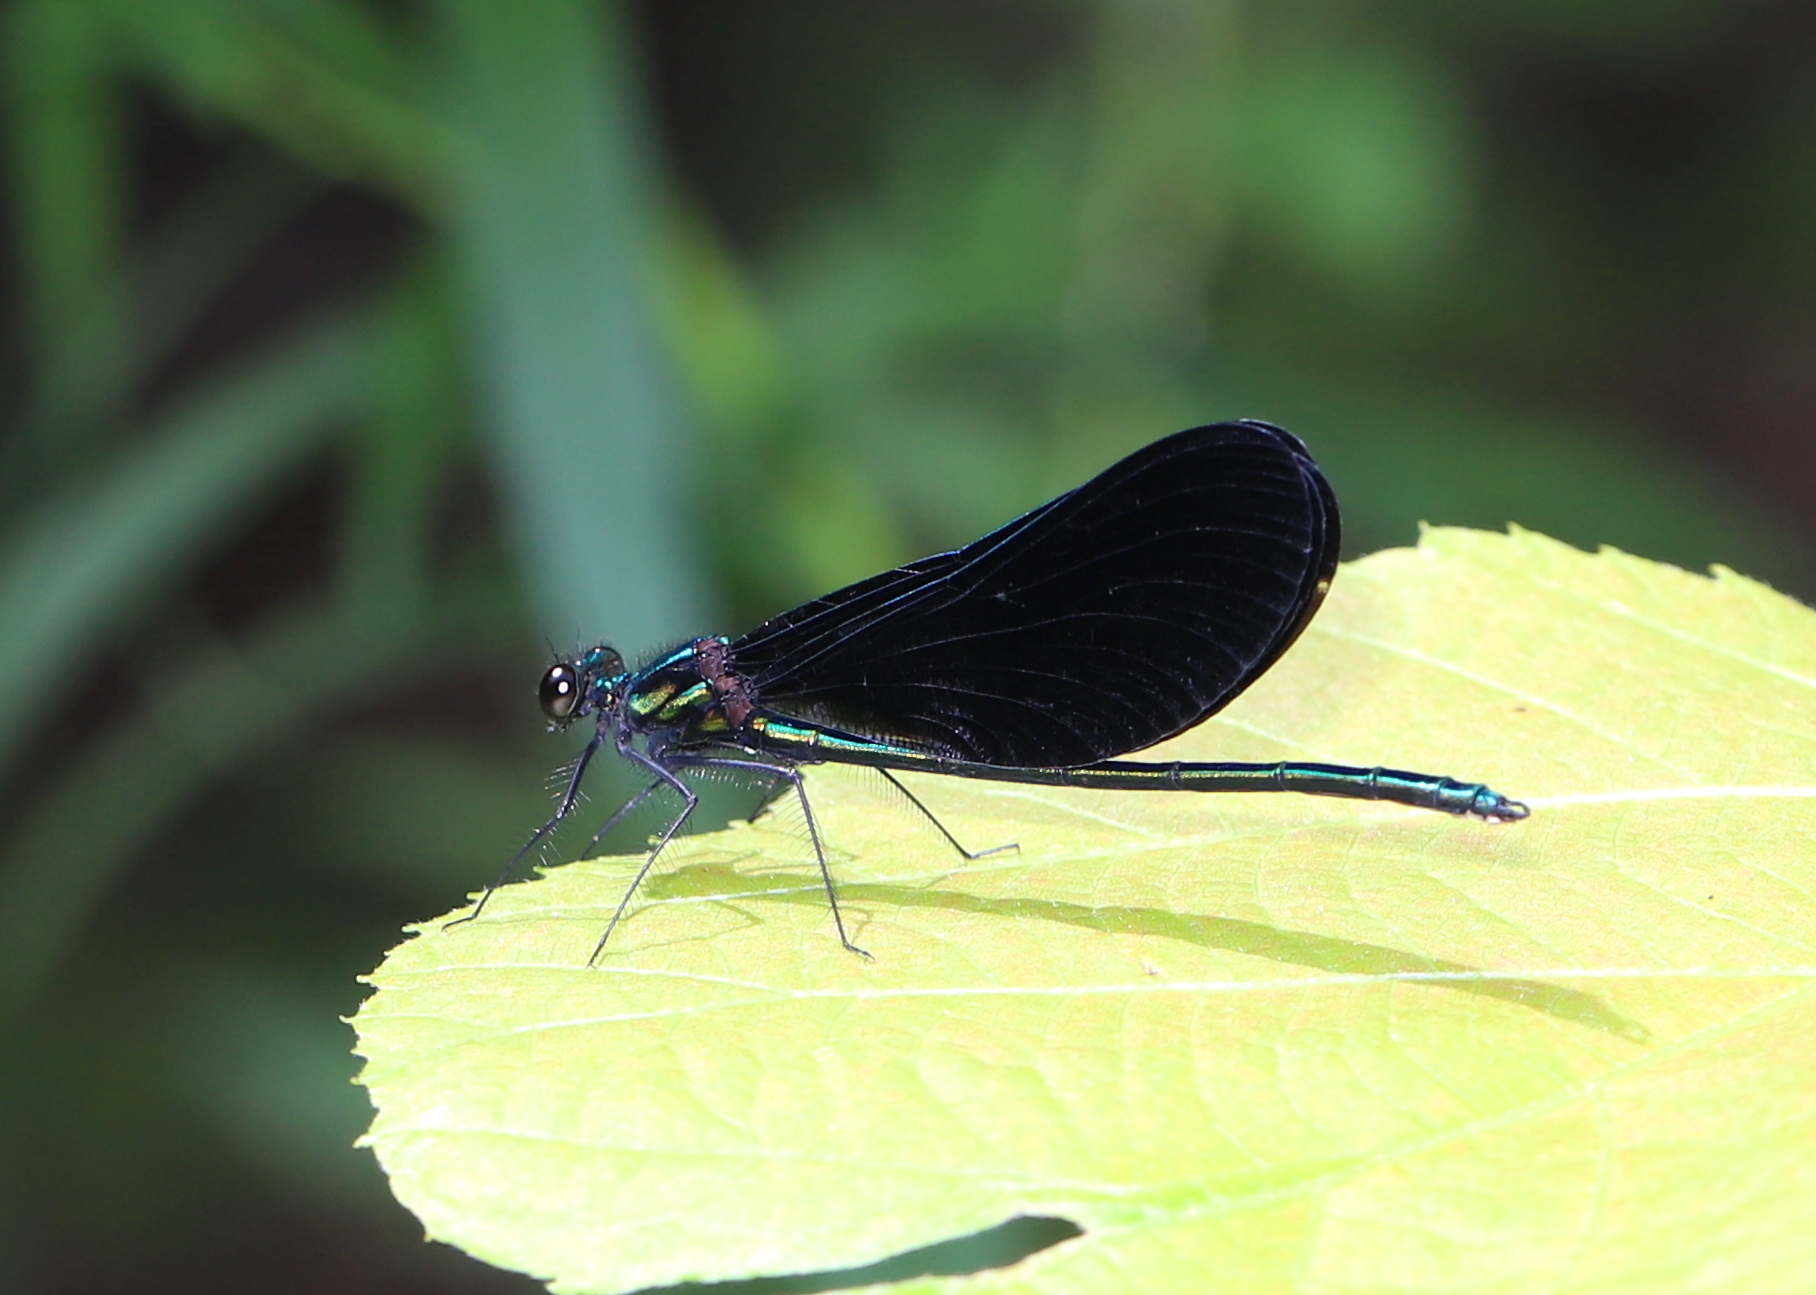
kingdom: Animalia
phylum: Arthropoda
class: Insecta
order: Odonata
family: Calopterygidae
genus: Calopteryx
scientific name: Calopteryx maculata
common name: Ebony jewelwing
